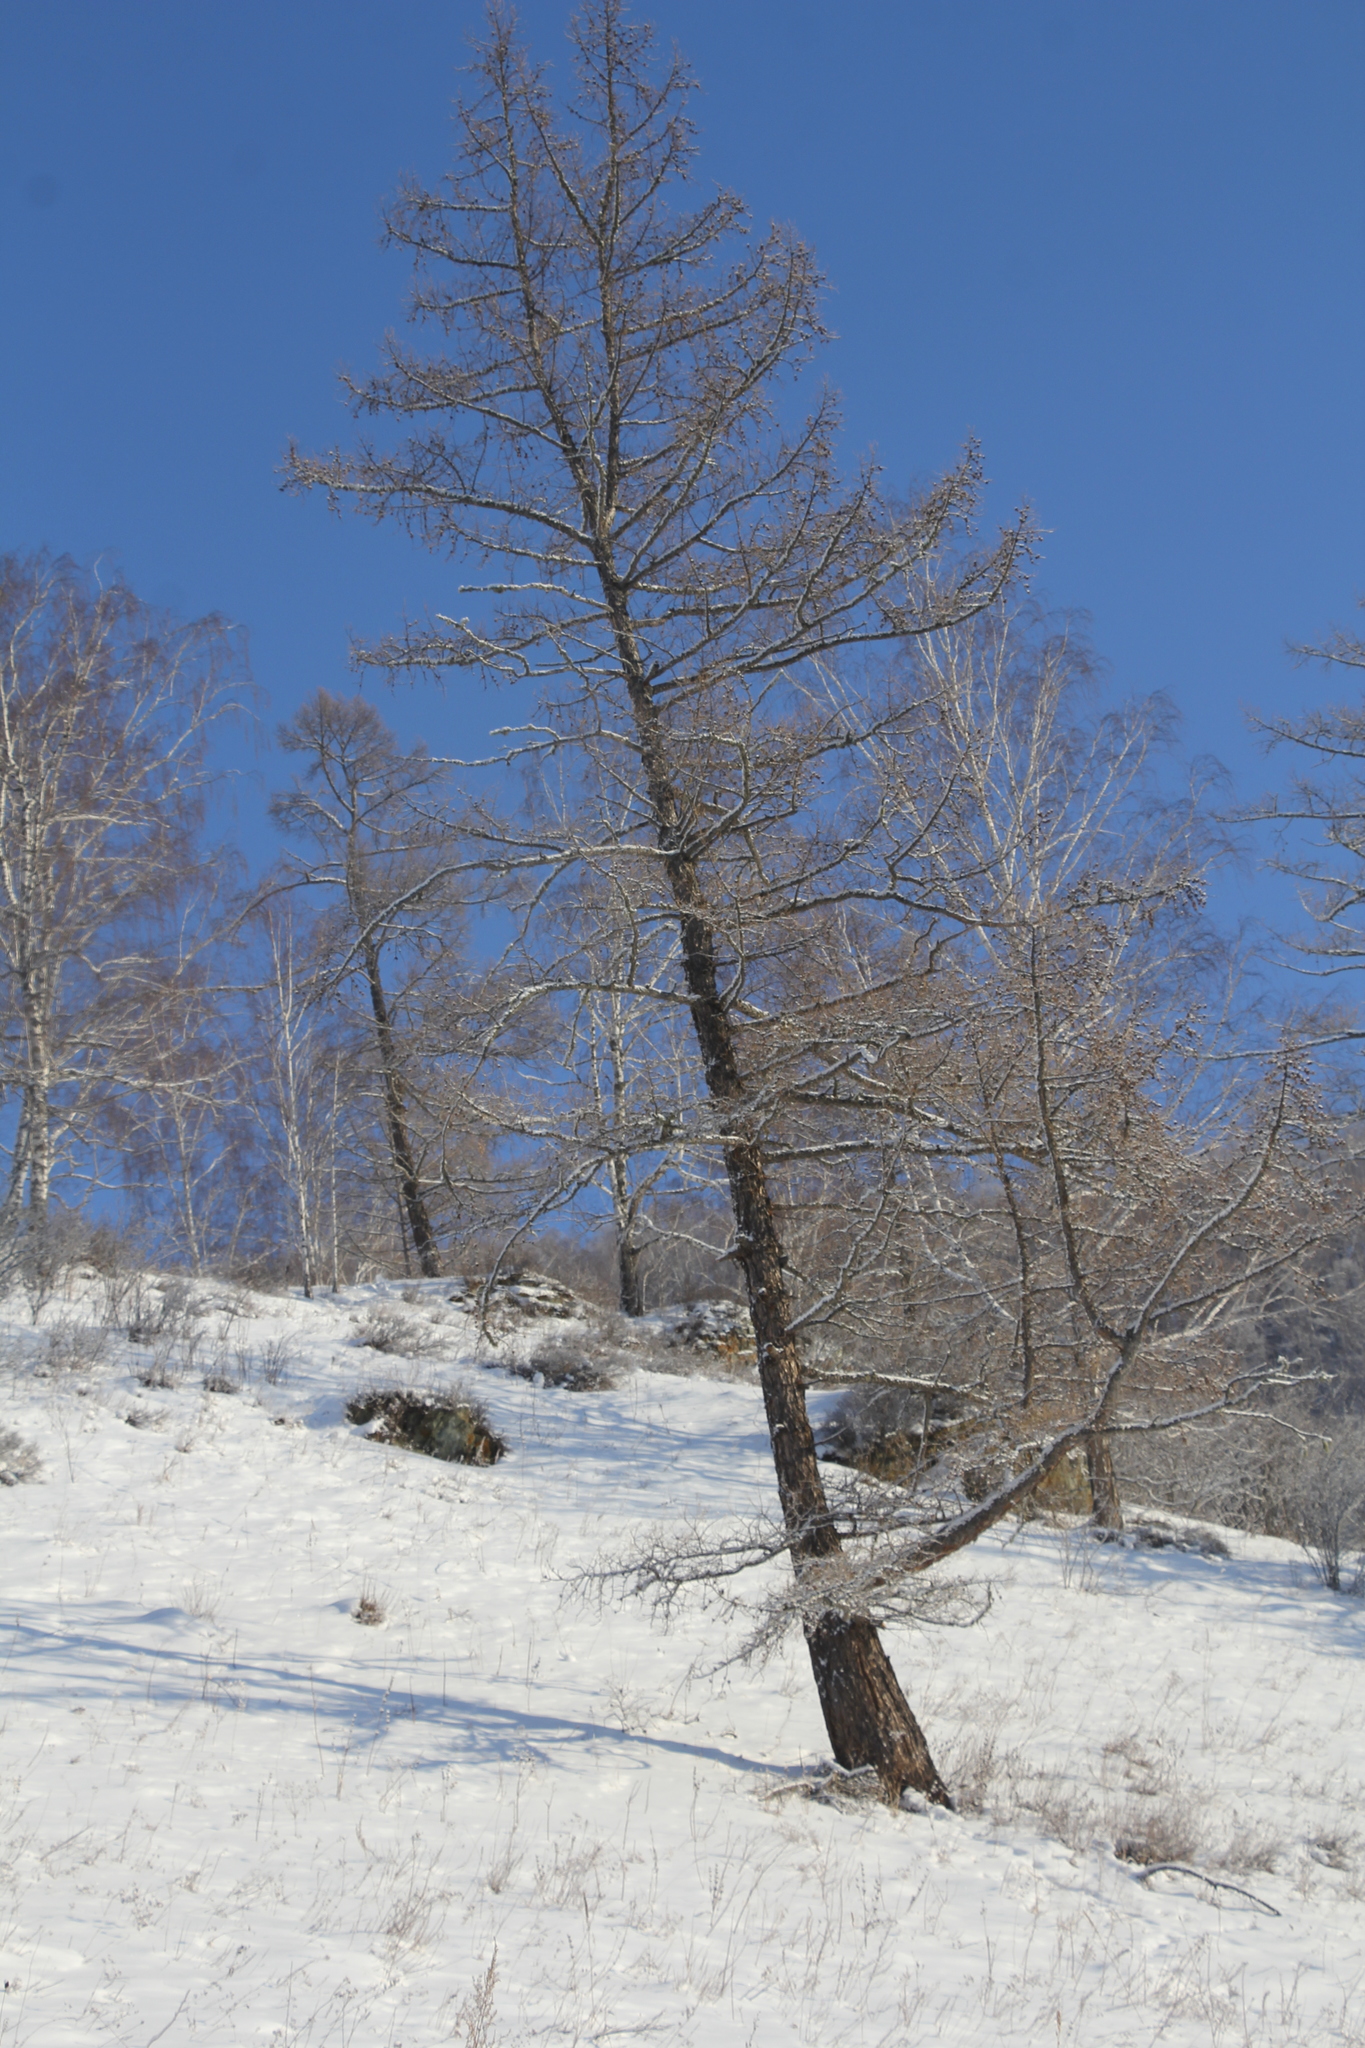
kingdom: Plantae
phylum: Tracheophyta
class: Pinopsida
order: Pinales
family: Pinaceae
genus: Larix
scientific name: Larix sibirica
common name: Siberian larch
